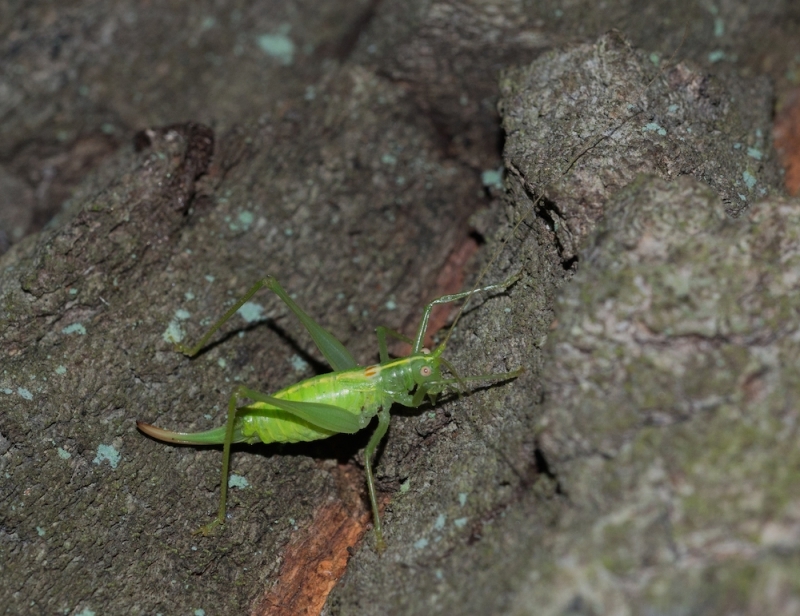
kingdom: Animalia
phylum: Arthropoda
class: Insecta
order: Orthoptera
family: Tettigoniidae
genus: Meconema
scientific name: Meconema meridionale
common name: Southern oak bush-cricket
